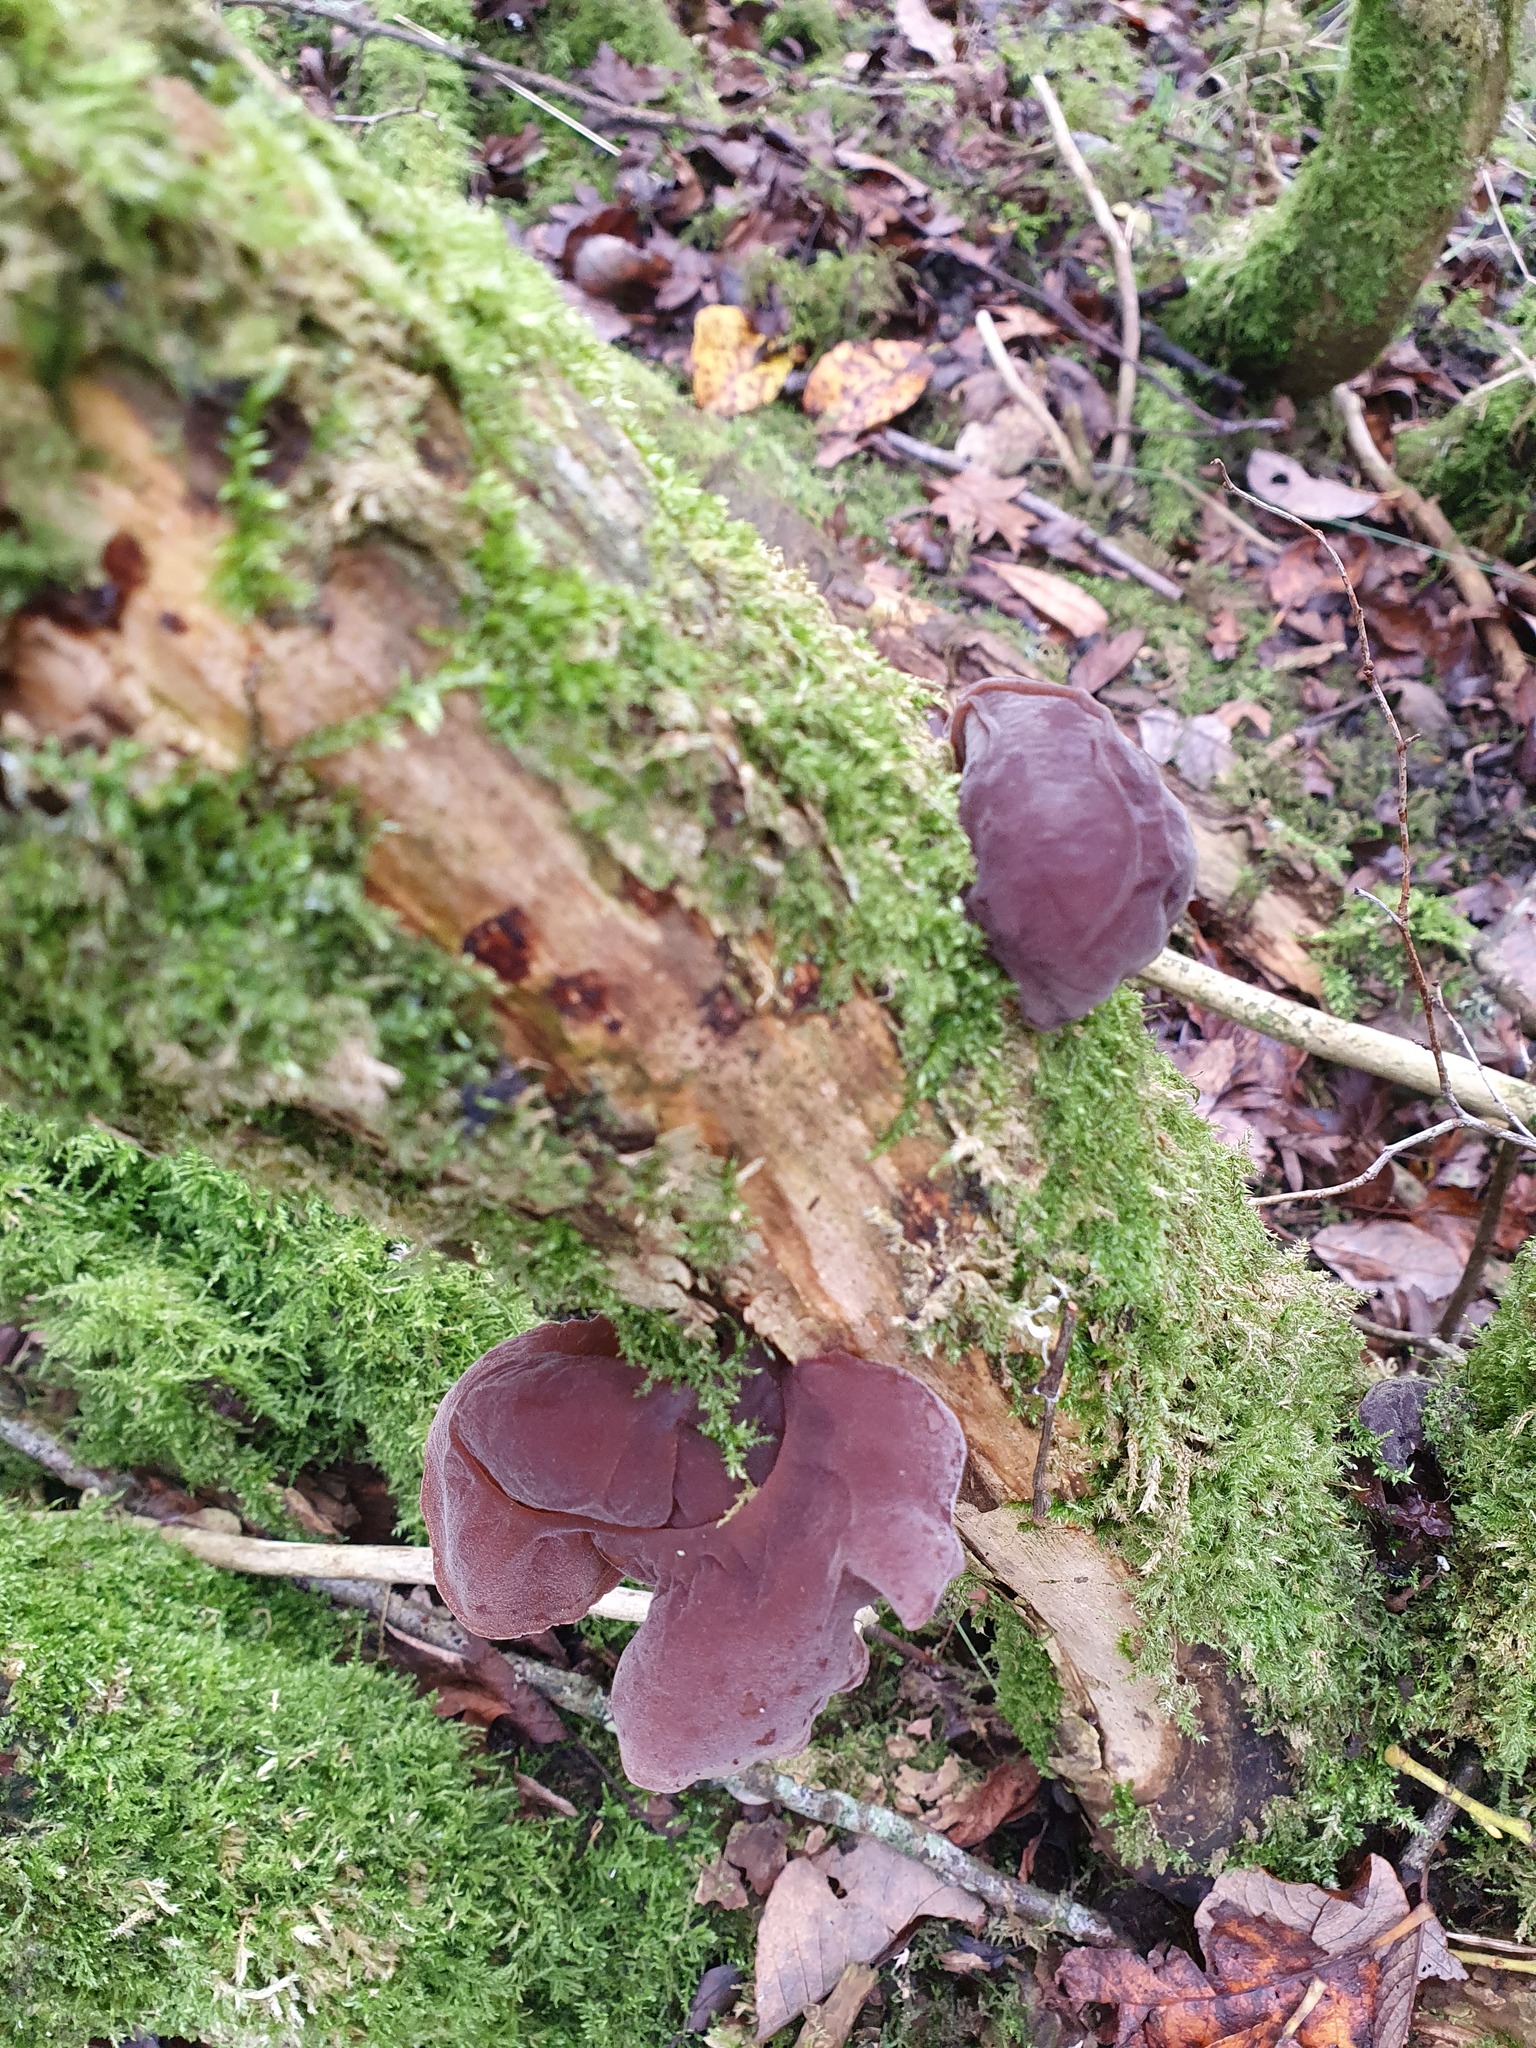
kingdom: Fungi
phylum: Basidiomycota
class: Agaricomycetes
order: Auriculariales
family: Auriculariaceae
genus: Auricularia
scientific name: Auricularia auricula-judae
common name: Jelly ear
